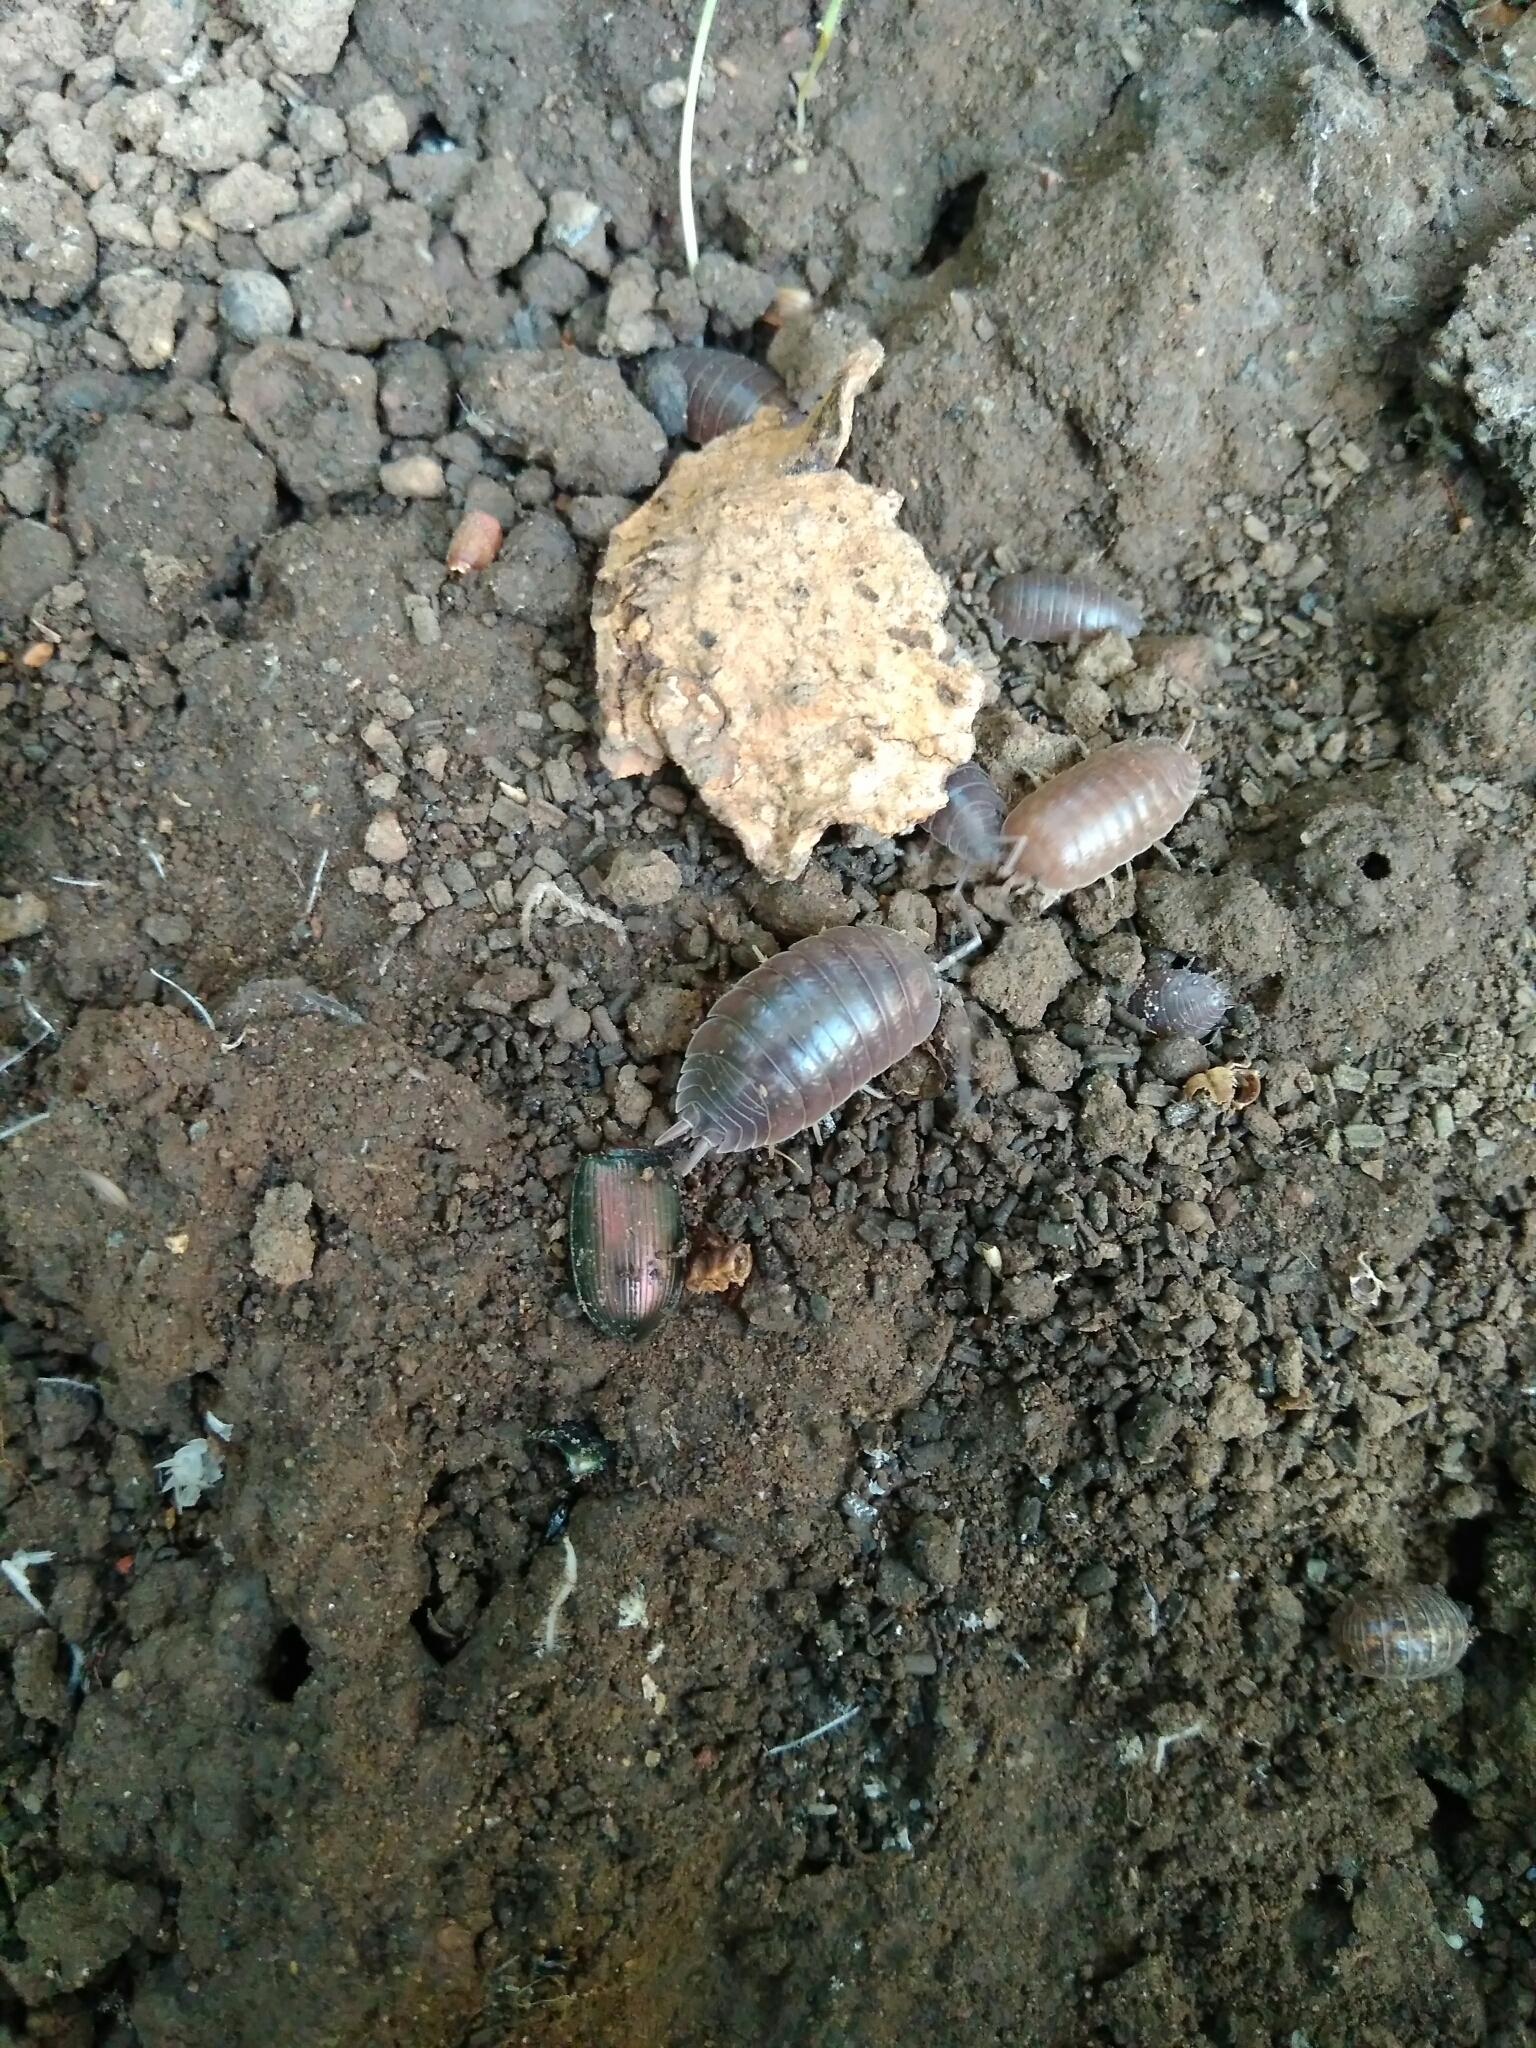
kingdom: Animalia
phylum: Arthropoda
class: Malacostraca
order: Isopoda
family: Porcellionidae
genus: Porcellio
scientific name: Porcellio laevis
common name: Swift woodlouse
